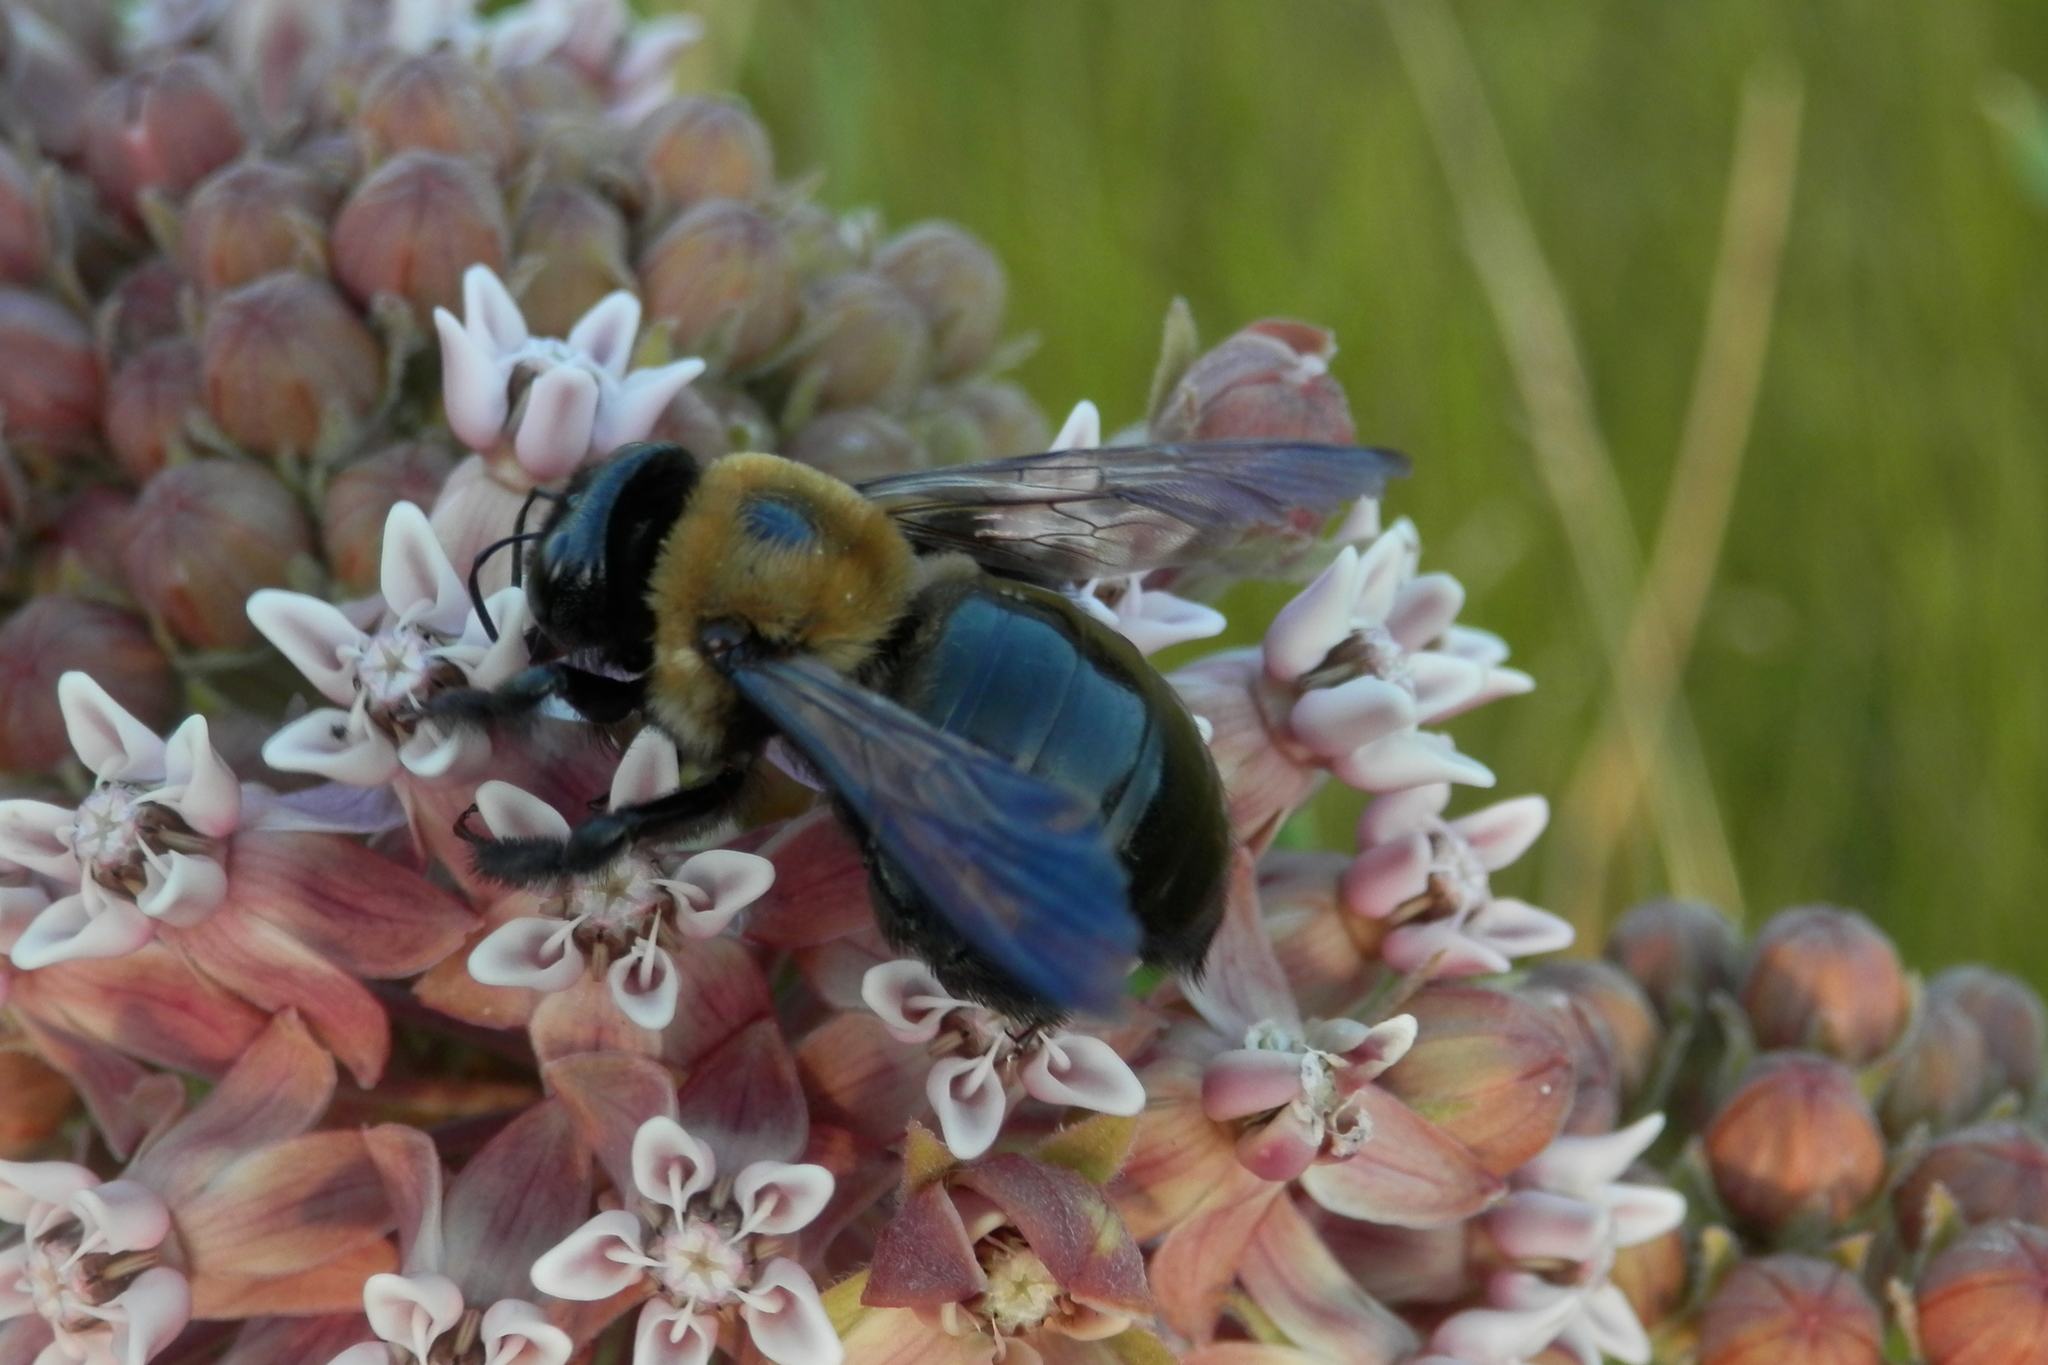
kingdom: Animalia
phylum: Arthropoda
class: Insecta
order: Hymenoptera
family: Apidae
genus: Xylocopa
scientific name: Xylocopa virginica
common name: Carpenter bee
